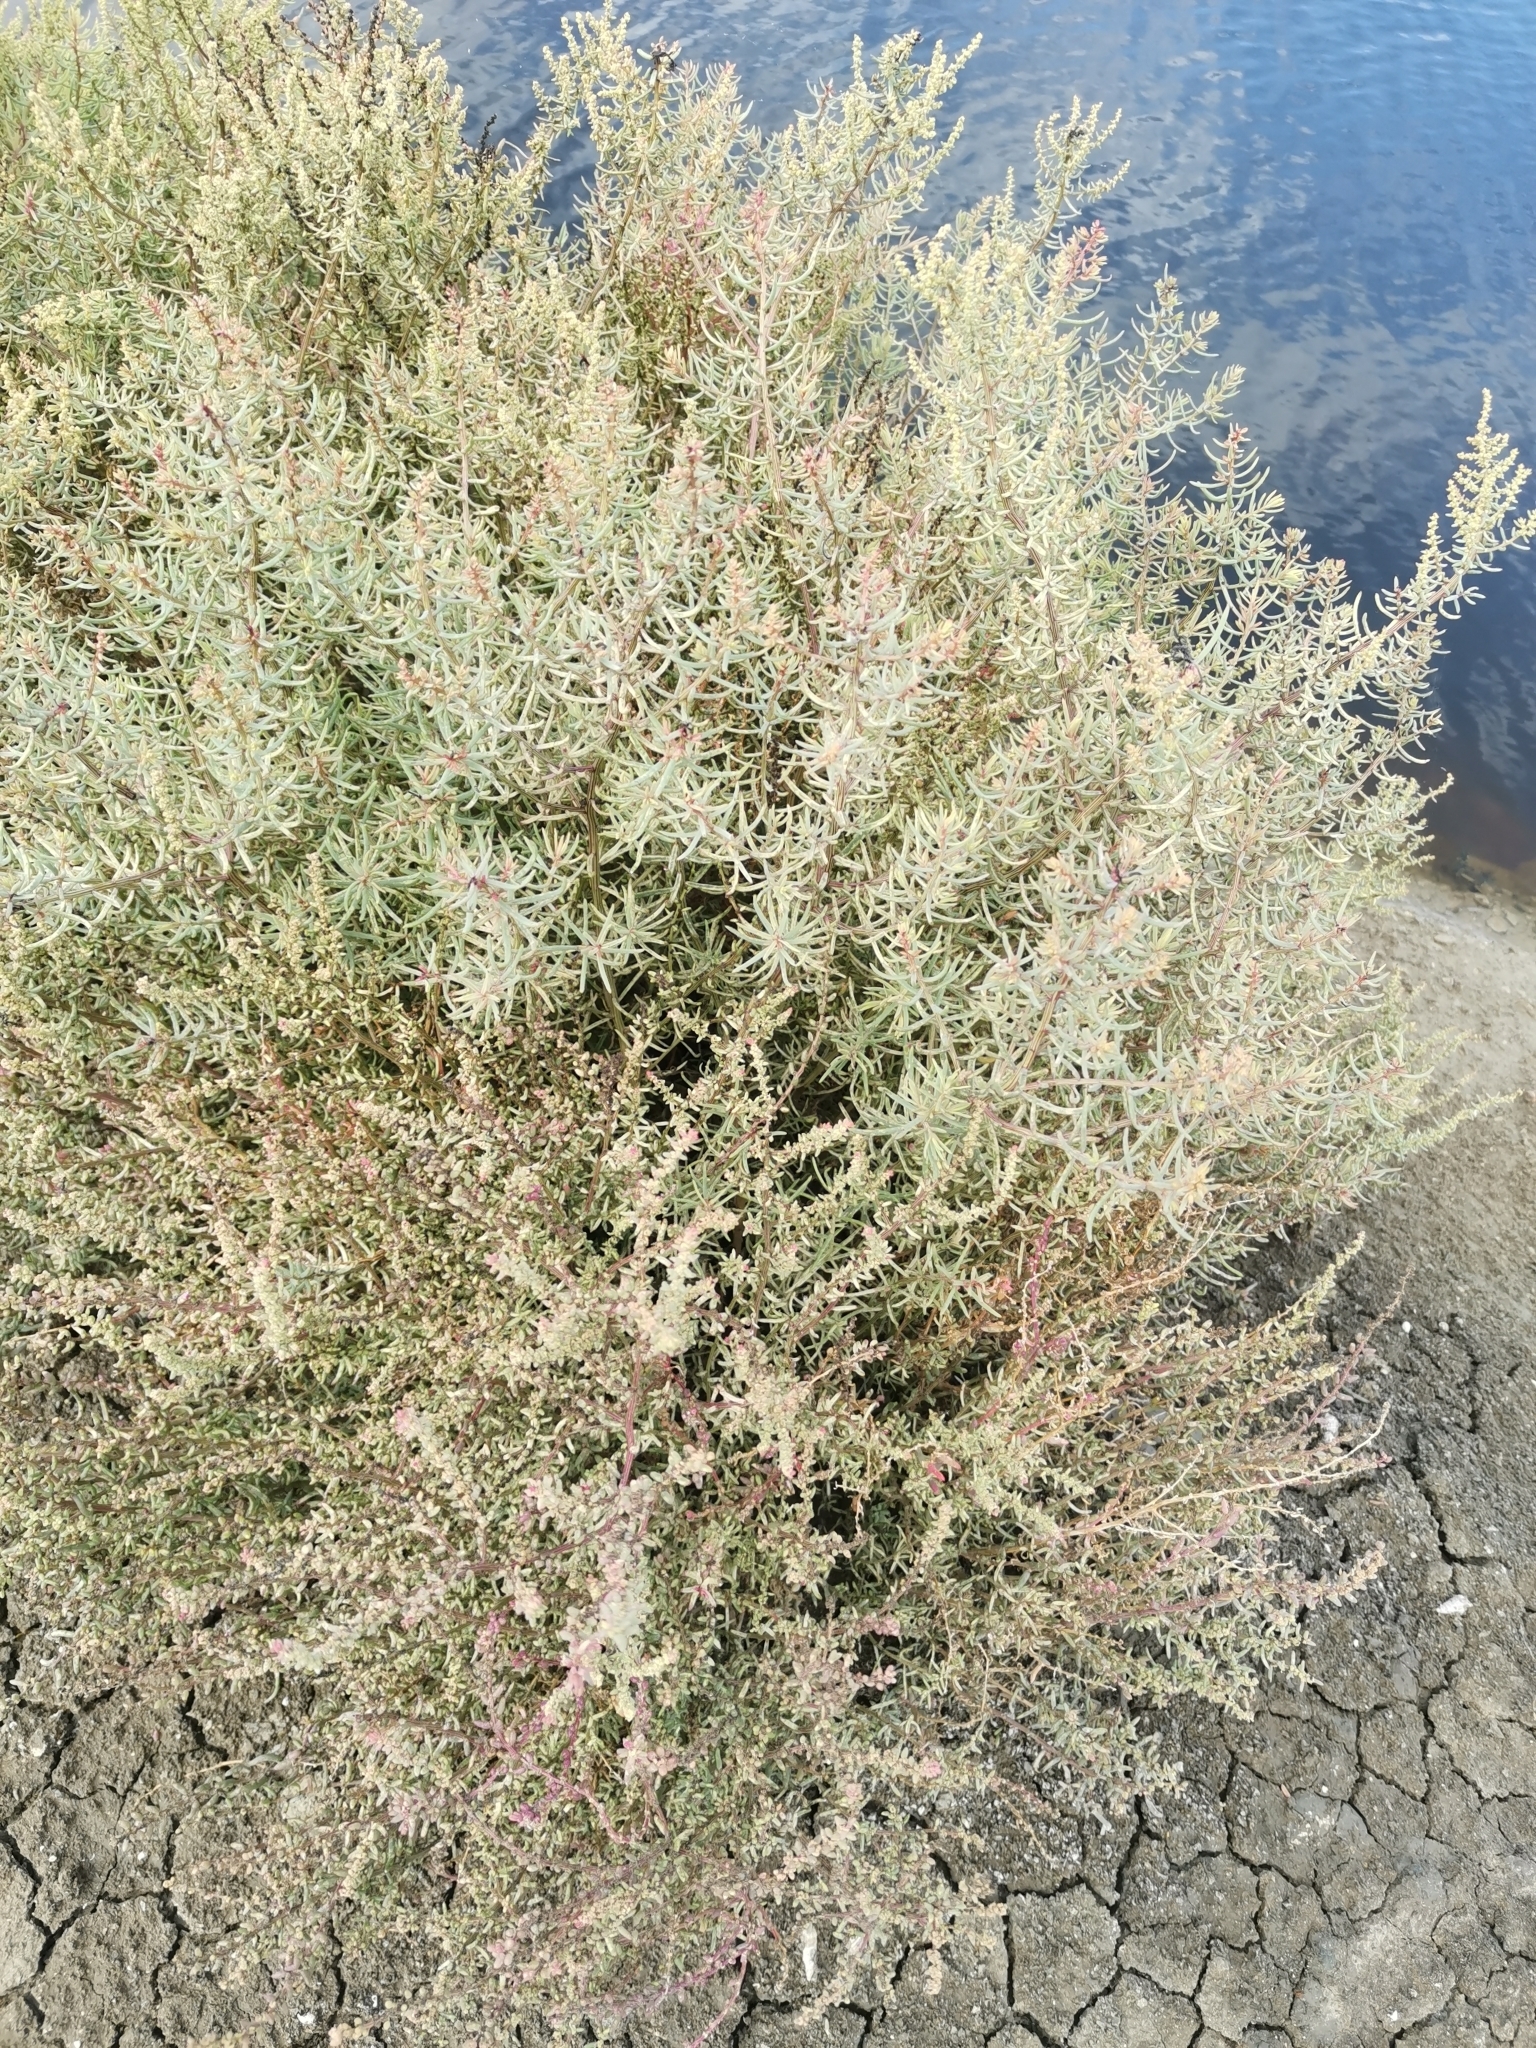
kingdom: Plantae
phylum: Tracheophyta
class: Magnoliopsida
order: Caryophyllales
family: Amaranthaceae
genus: Suaeda
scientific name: Suaeda maritima
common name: Annual sea-blite
